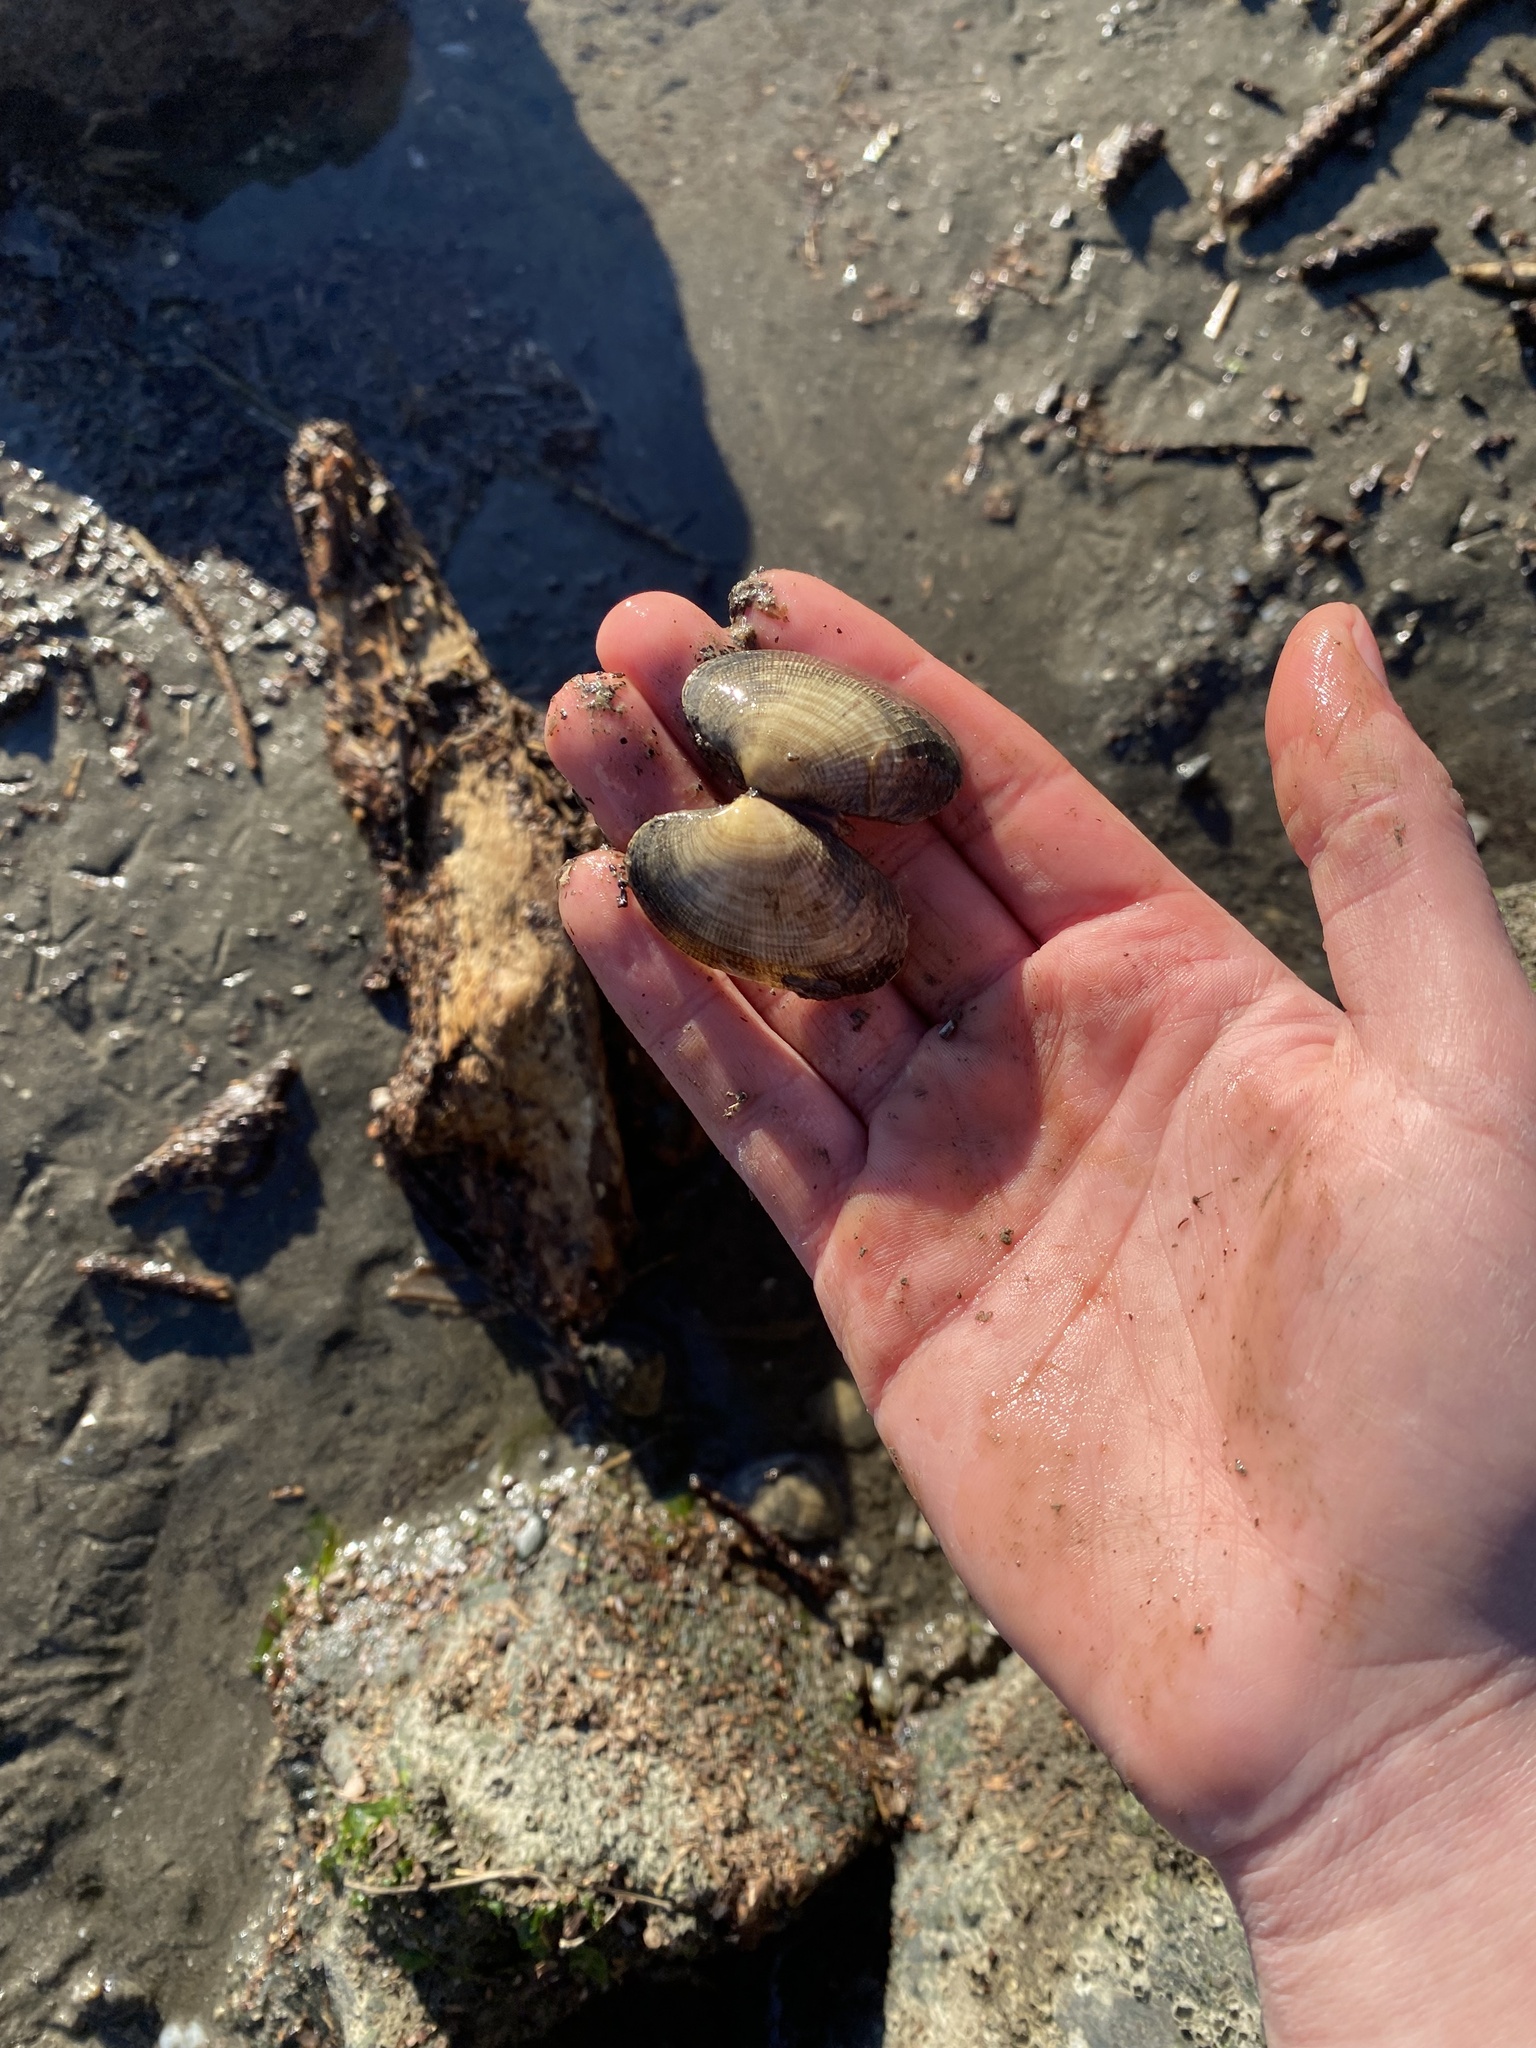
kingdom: Animalia
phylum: Mollusca
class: Bivalvia
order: Venerida
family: Veneridae
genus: Ruditapes
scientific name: Ruditapes philippinarum
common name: Manila clam
